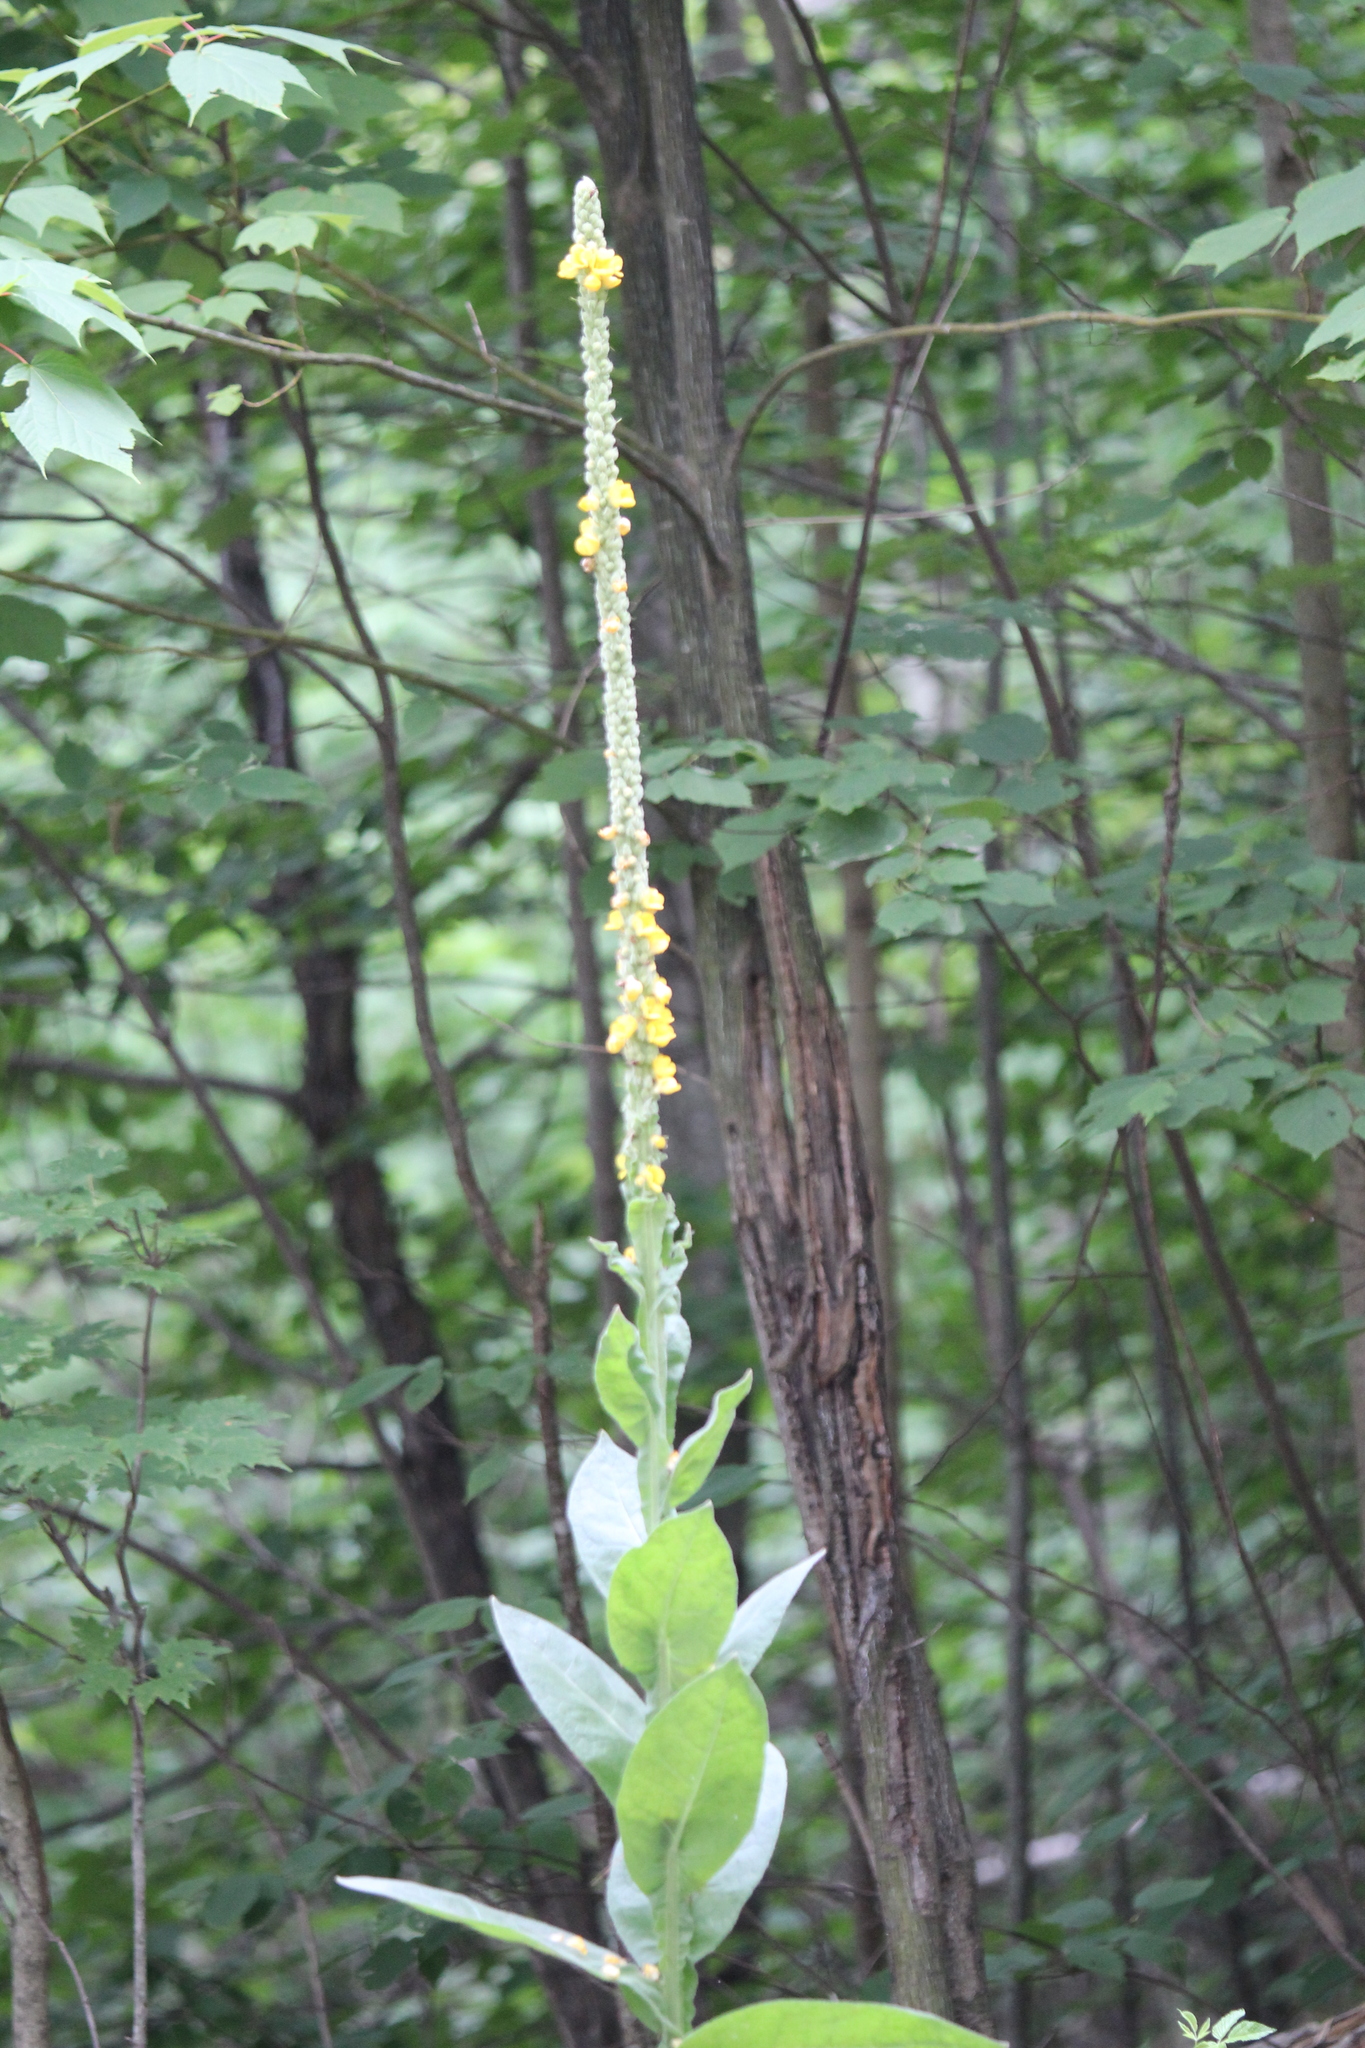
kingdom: Plantae
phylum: Tracheophyta
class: Magnoliopsida
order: Lamiales
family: Scrophulariaceae
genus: Verbascum
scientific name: Verbascum thapsus
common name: Common mullein
